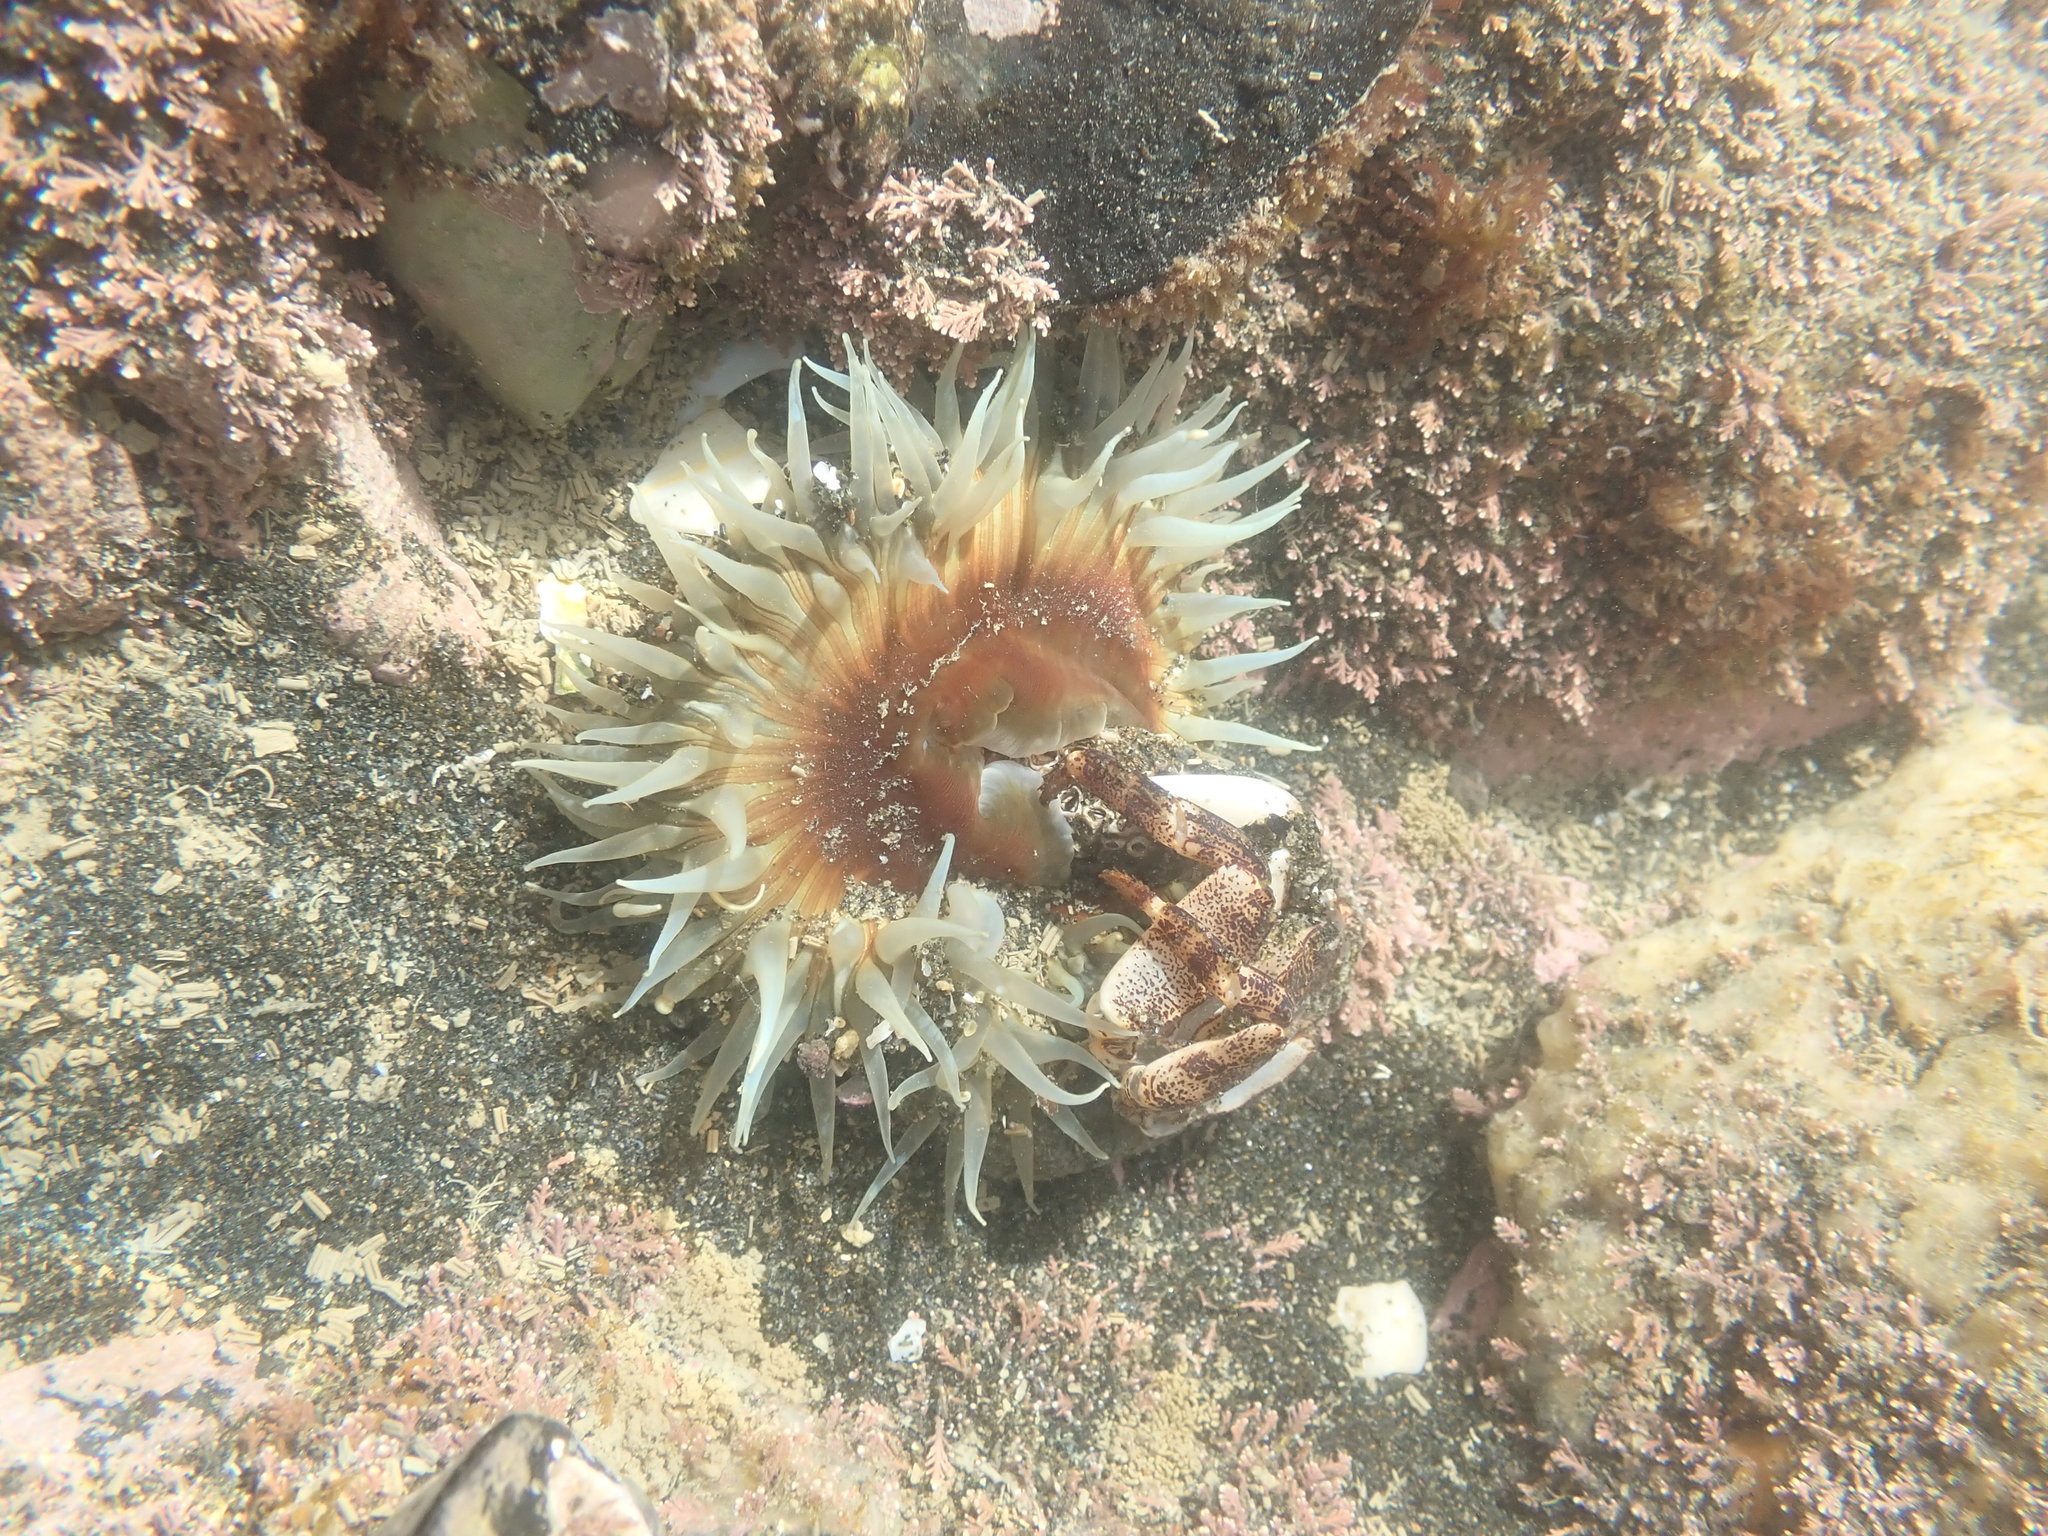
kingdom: Animalia
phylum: Cnidaria
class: Anthozoa
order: Actiniaria
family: Actiniidae
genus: Oulactis
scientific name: Oulactis magna
